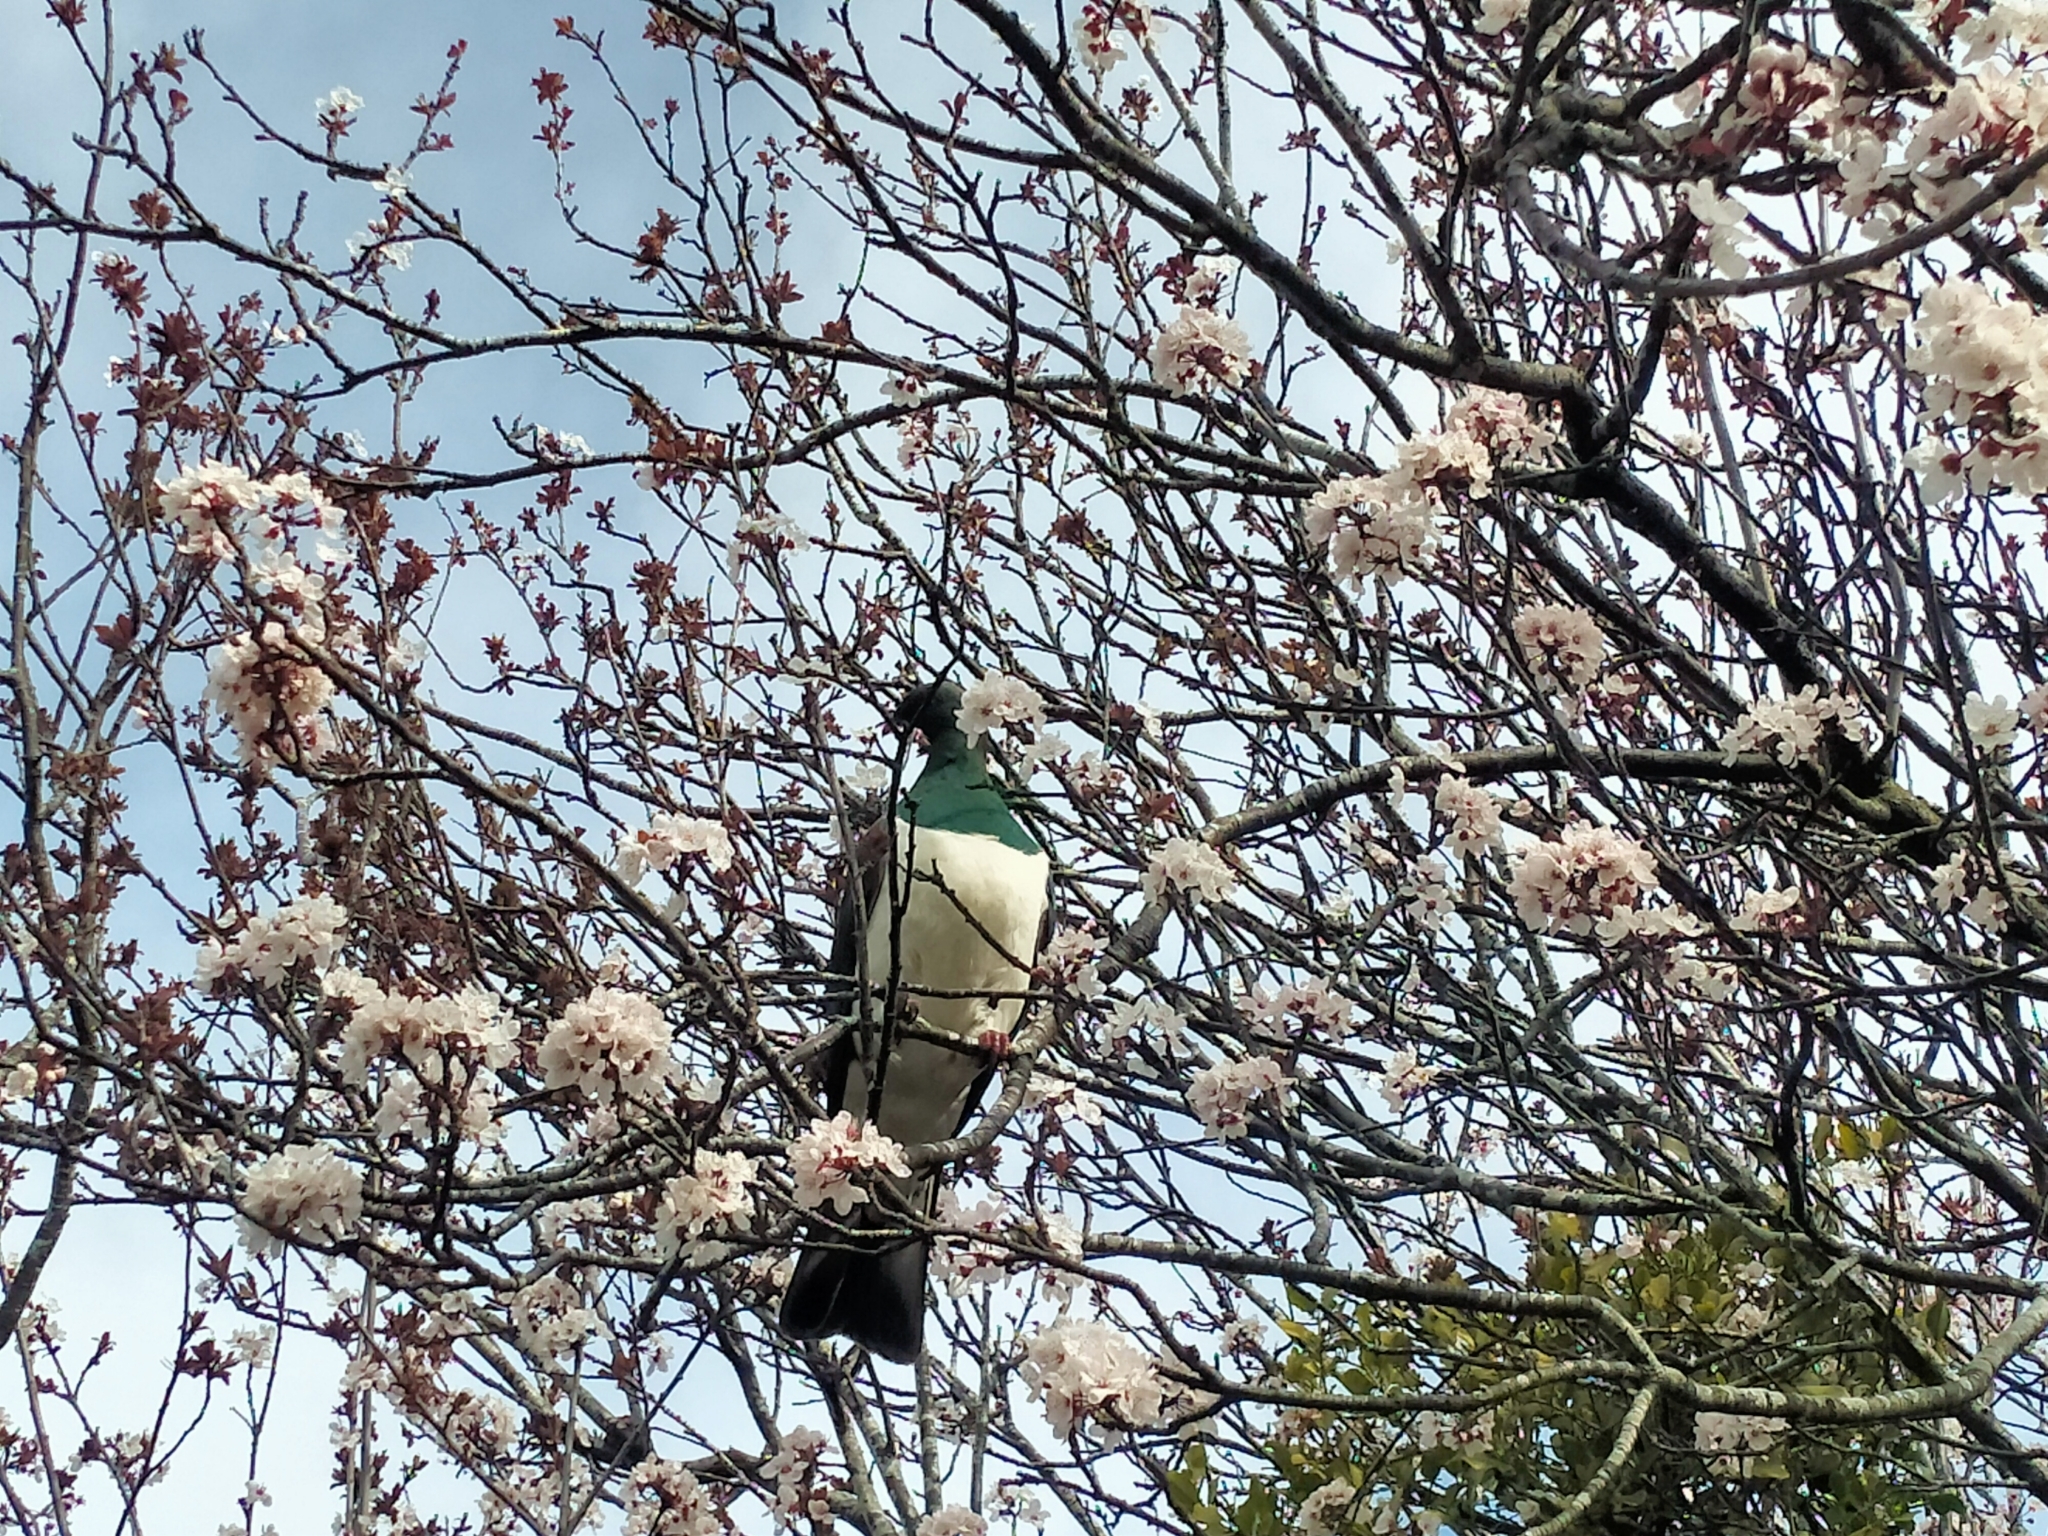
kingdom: Animalia
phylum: Chordata
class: Aves
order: Columbiformes
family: Columbidae
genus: Hemiphaga
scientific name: Hemiphaga novaeseelandiae
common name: New zealand pigeon
